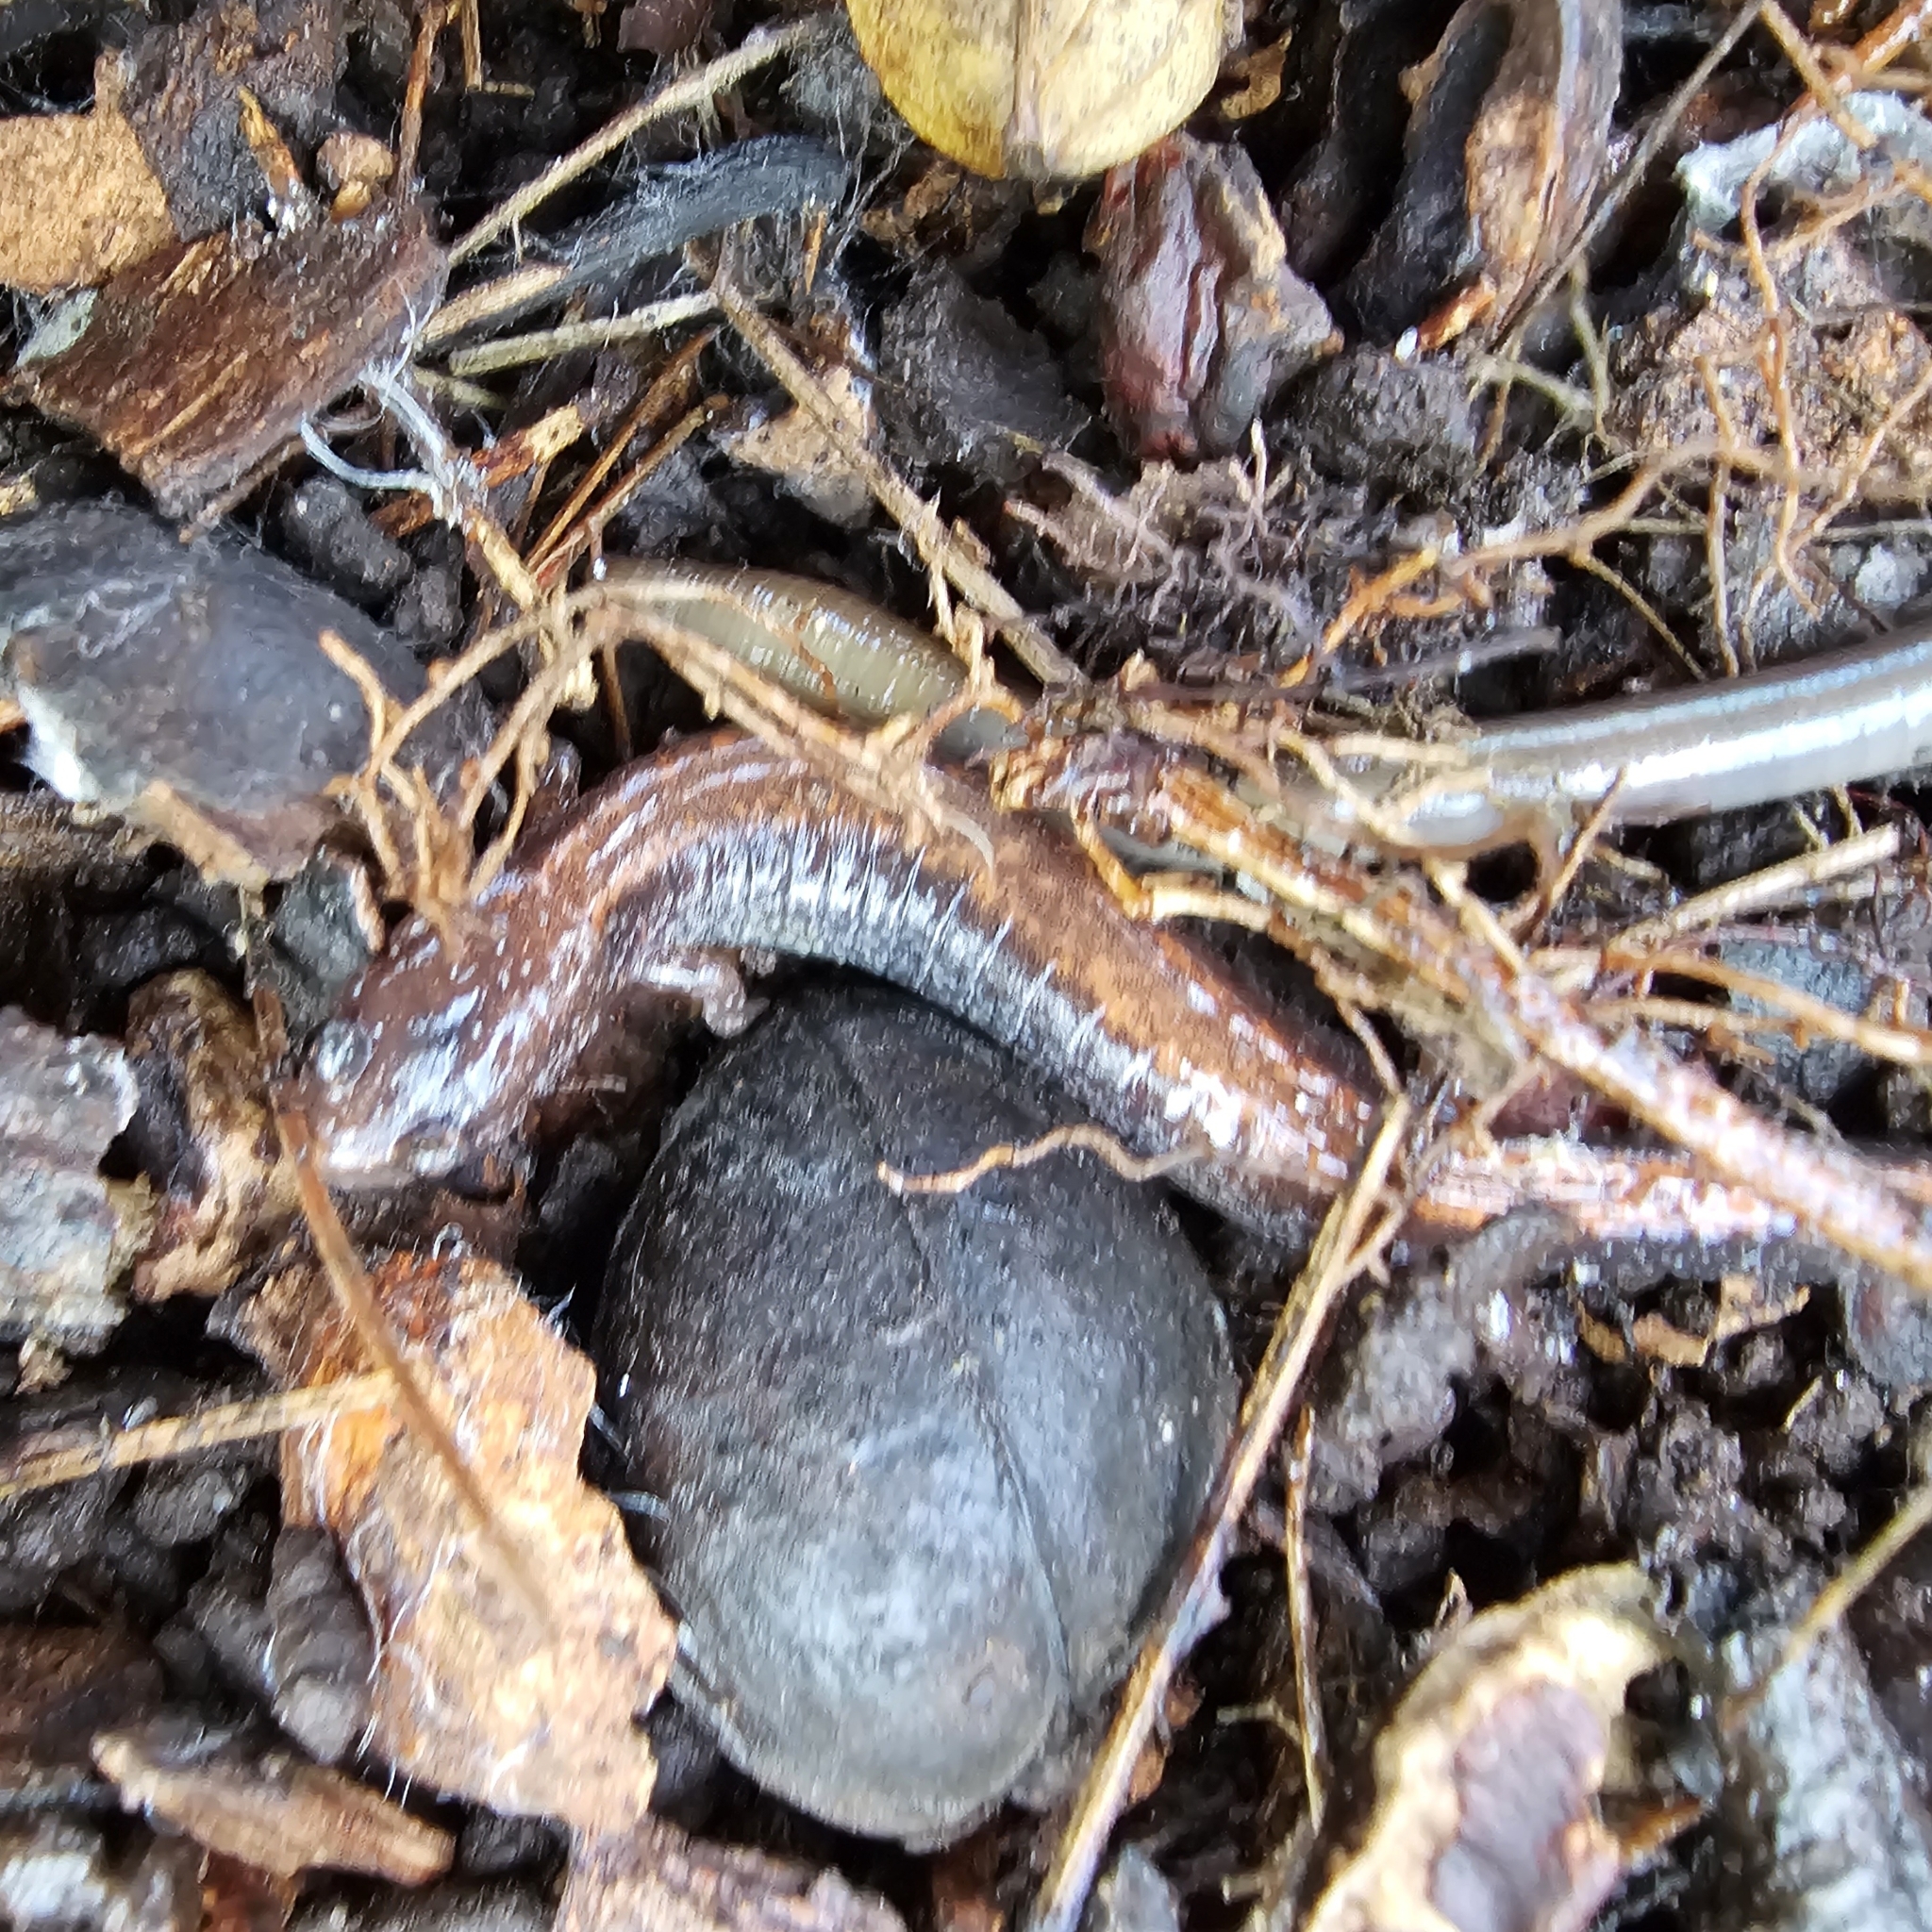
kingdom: Animalia
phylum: Chordata
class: Amphibia
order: Caudata
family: Plethodontidae
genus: Plethodon
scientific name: Plethodon cinereus
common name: Redback salamander
